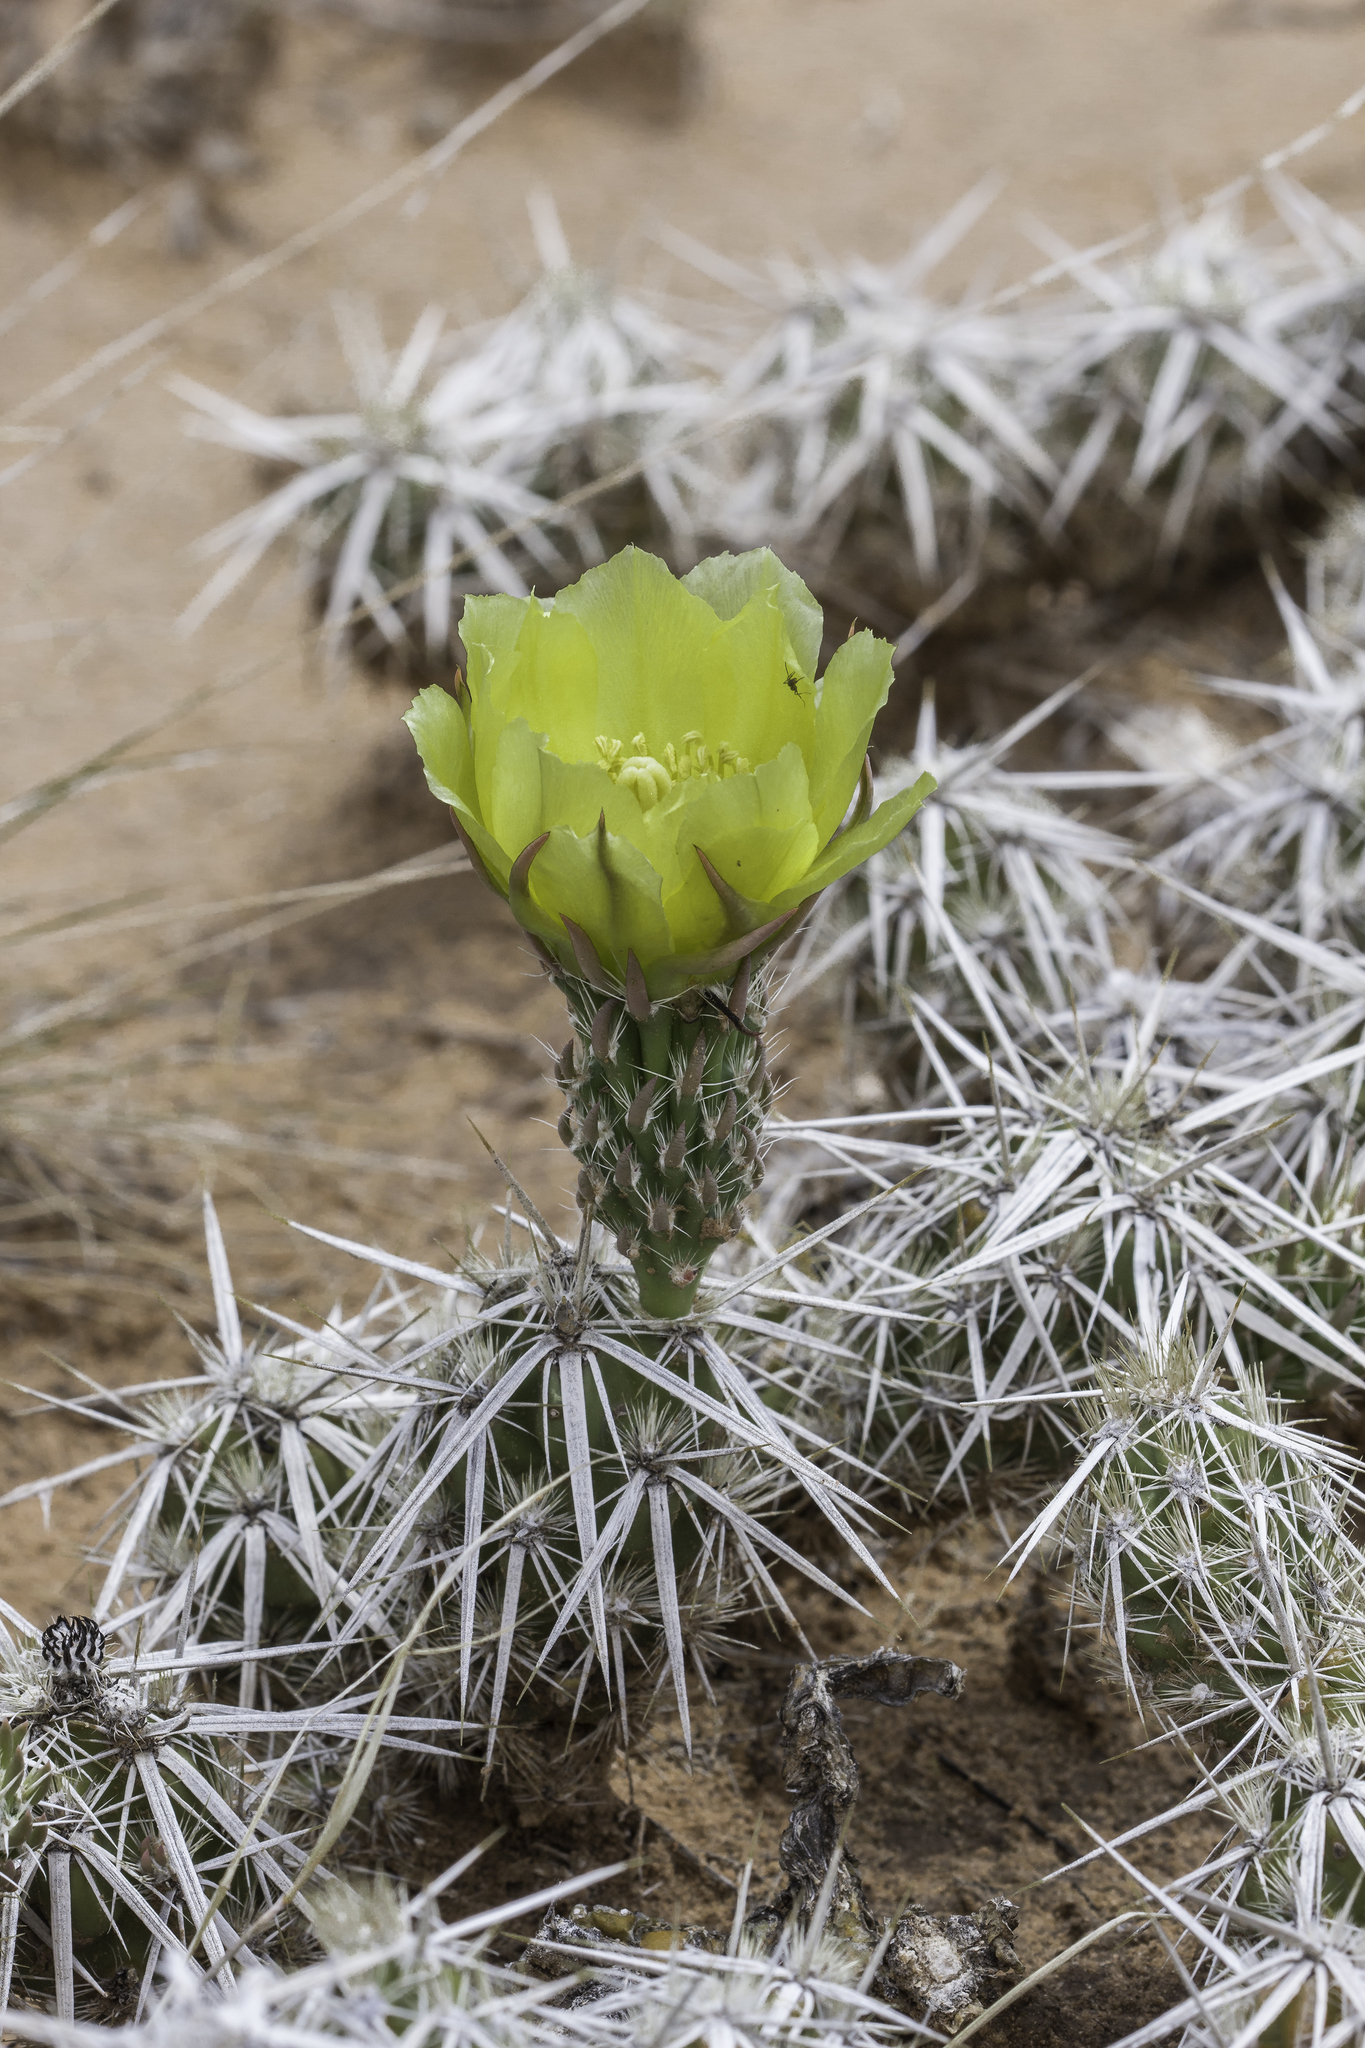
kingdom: Plantae
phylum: Tracheophyta
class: Magnoliopsida
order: Caryophyllales
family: Cactaceae
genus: Grusonia
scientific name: Grusonia clavata
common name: Club cholla
